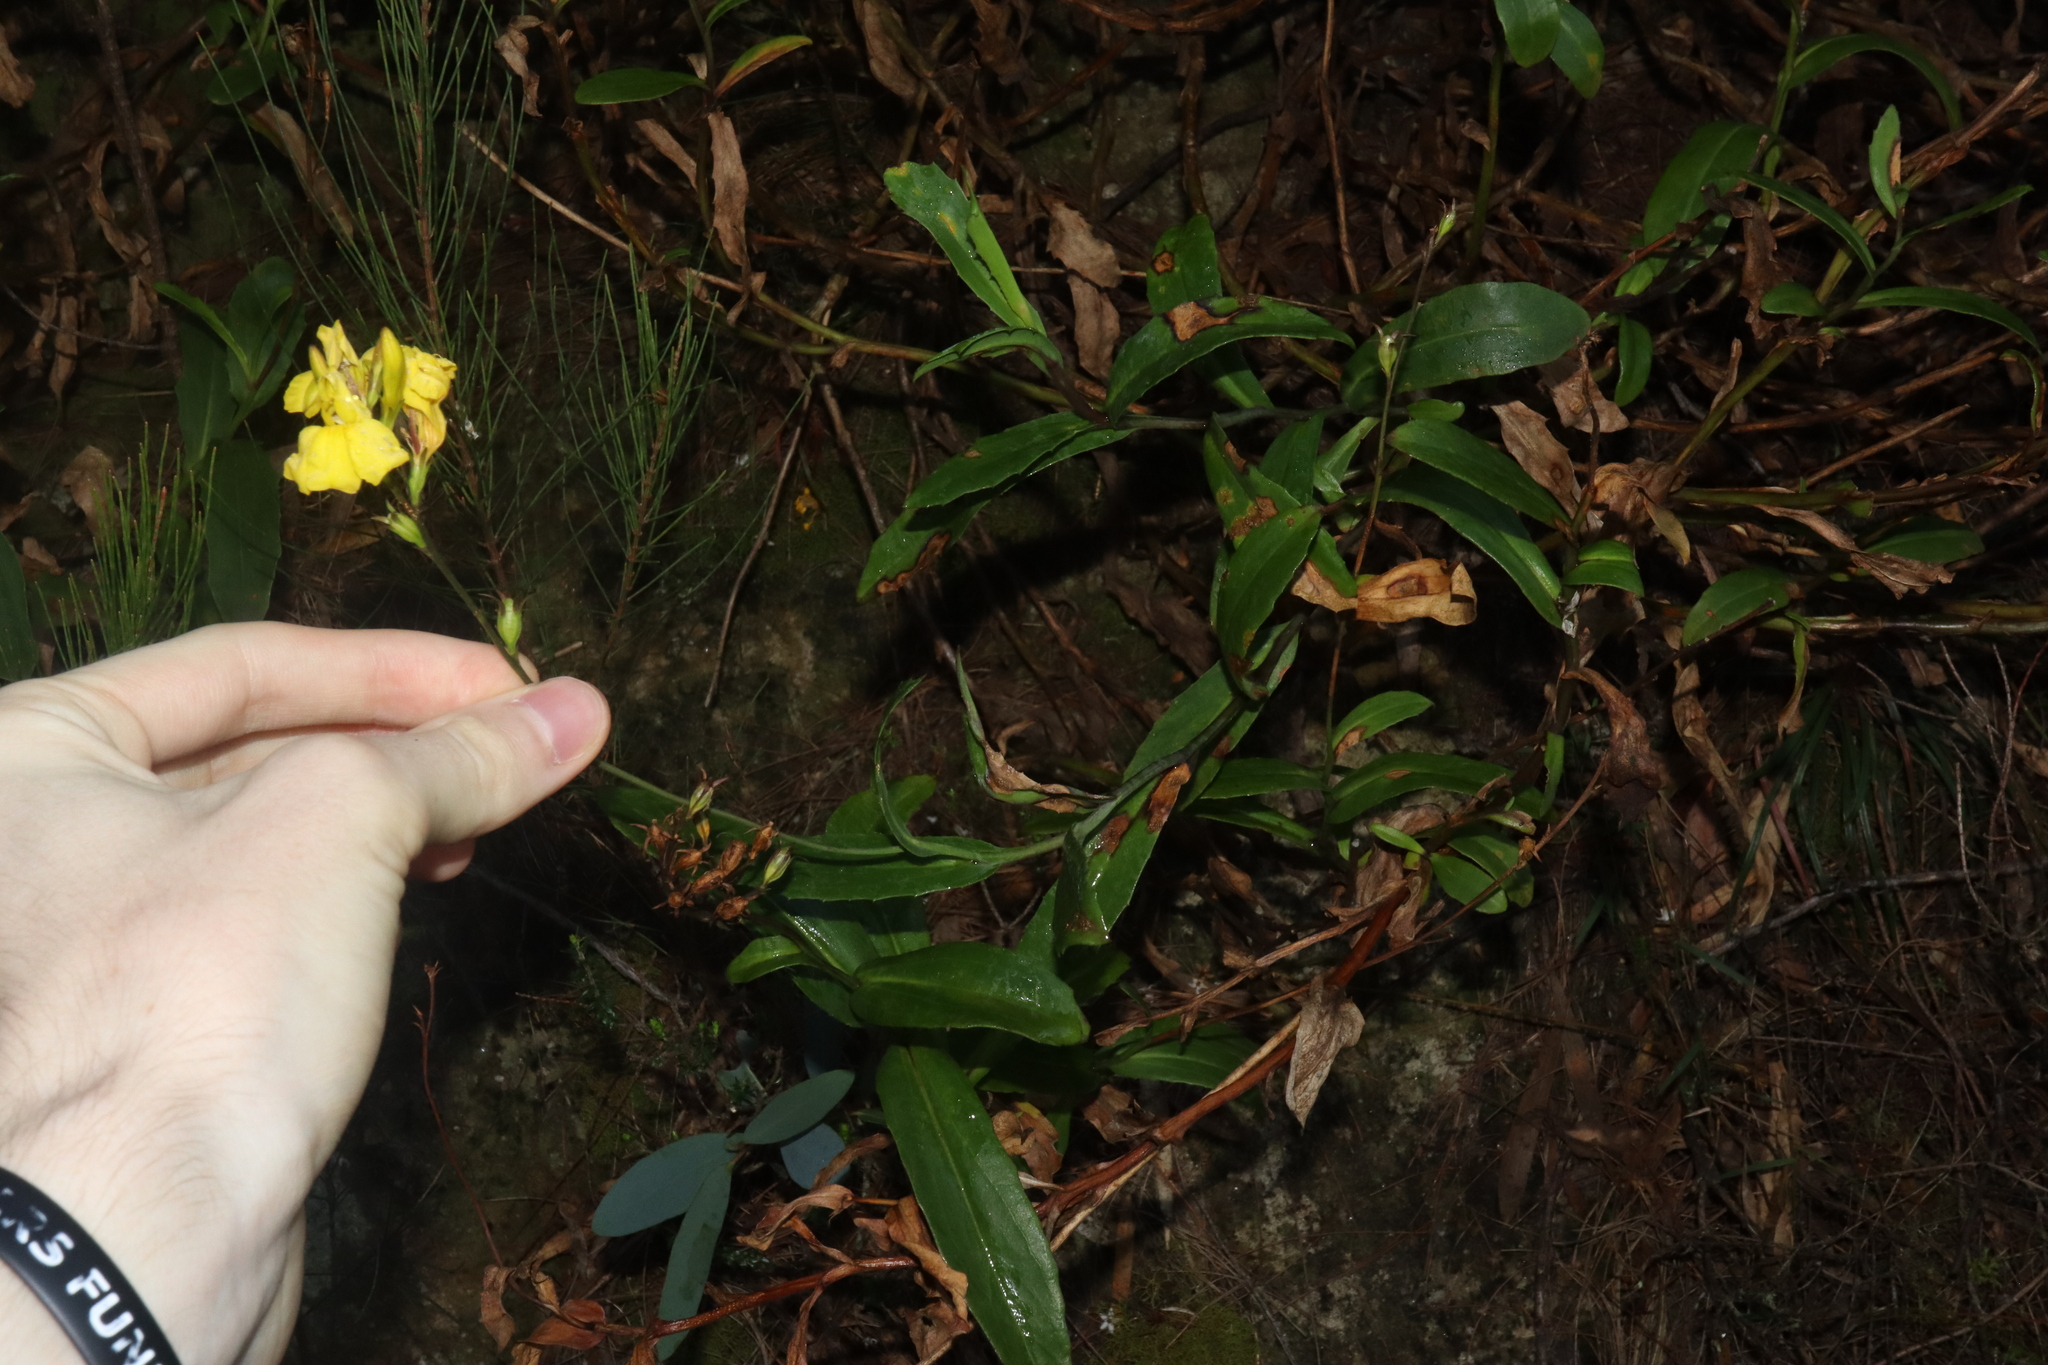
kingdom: Plantae
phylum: Tracheophyta
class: Magnoliopsida
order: Asterales
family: Goodeniaceae
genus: Goodenia
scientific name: Goodenia decurrens
